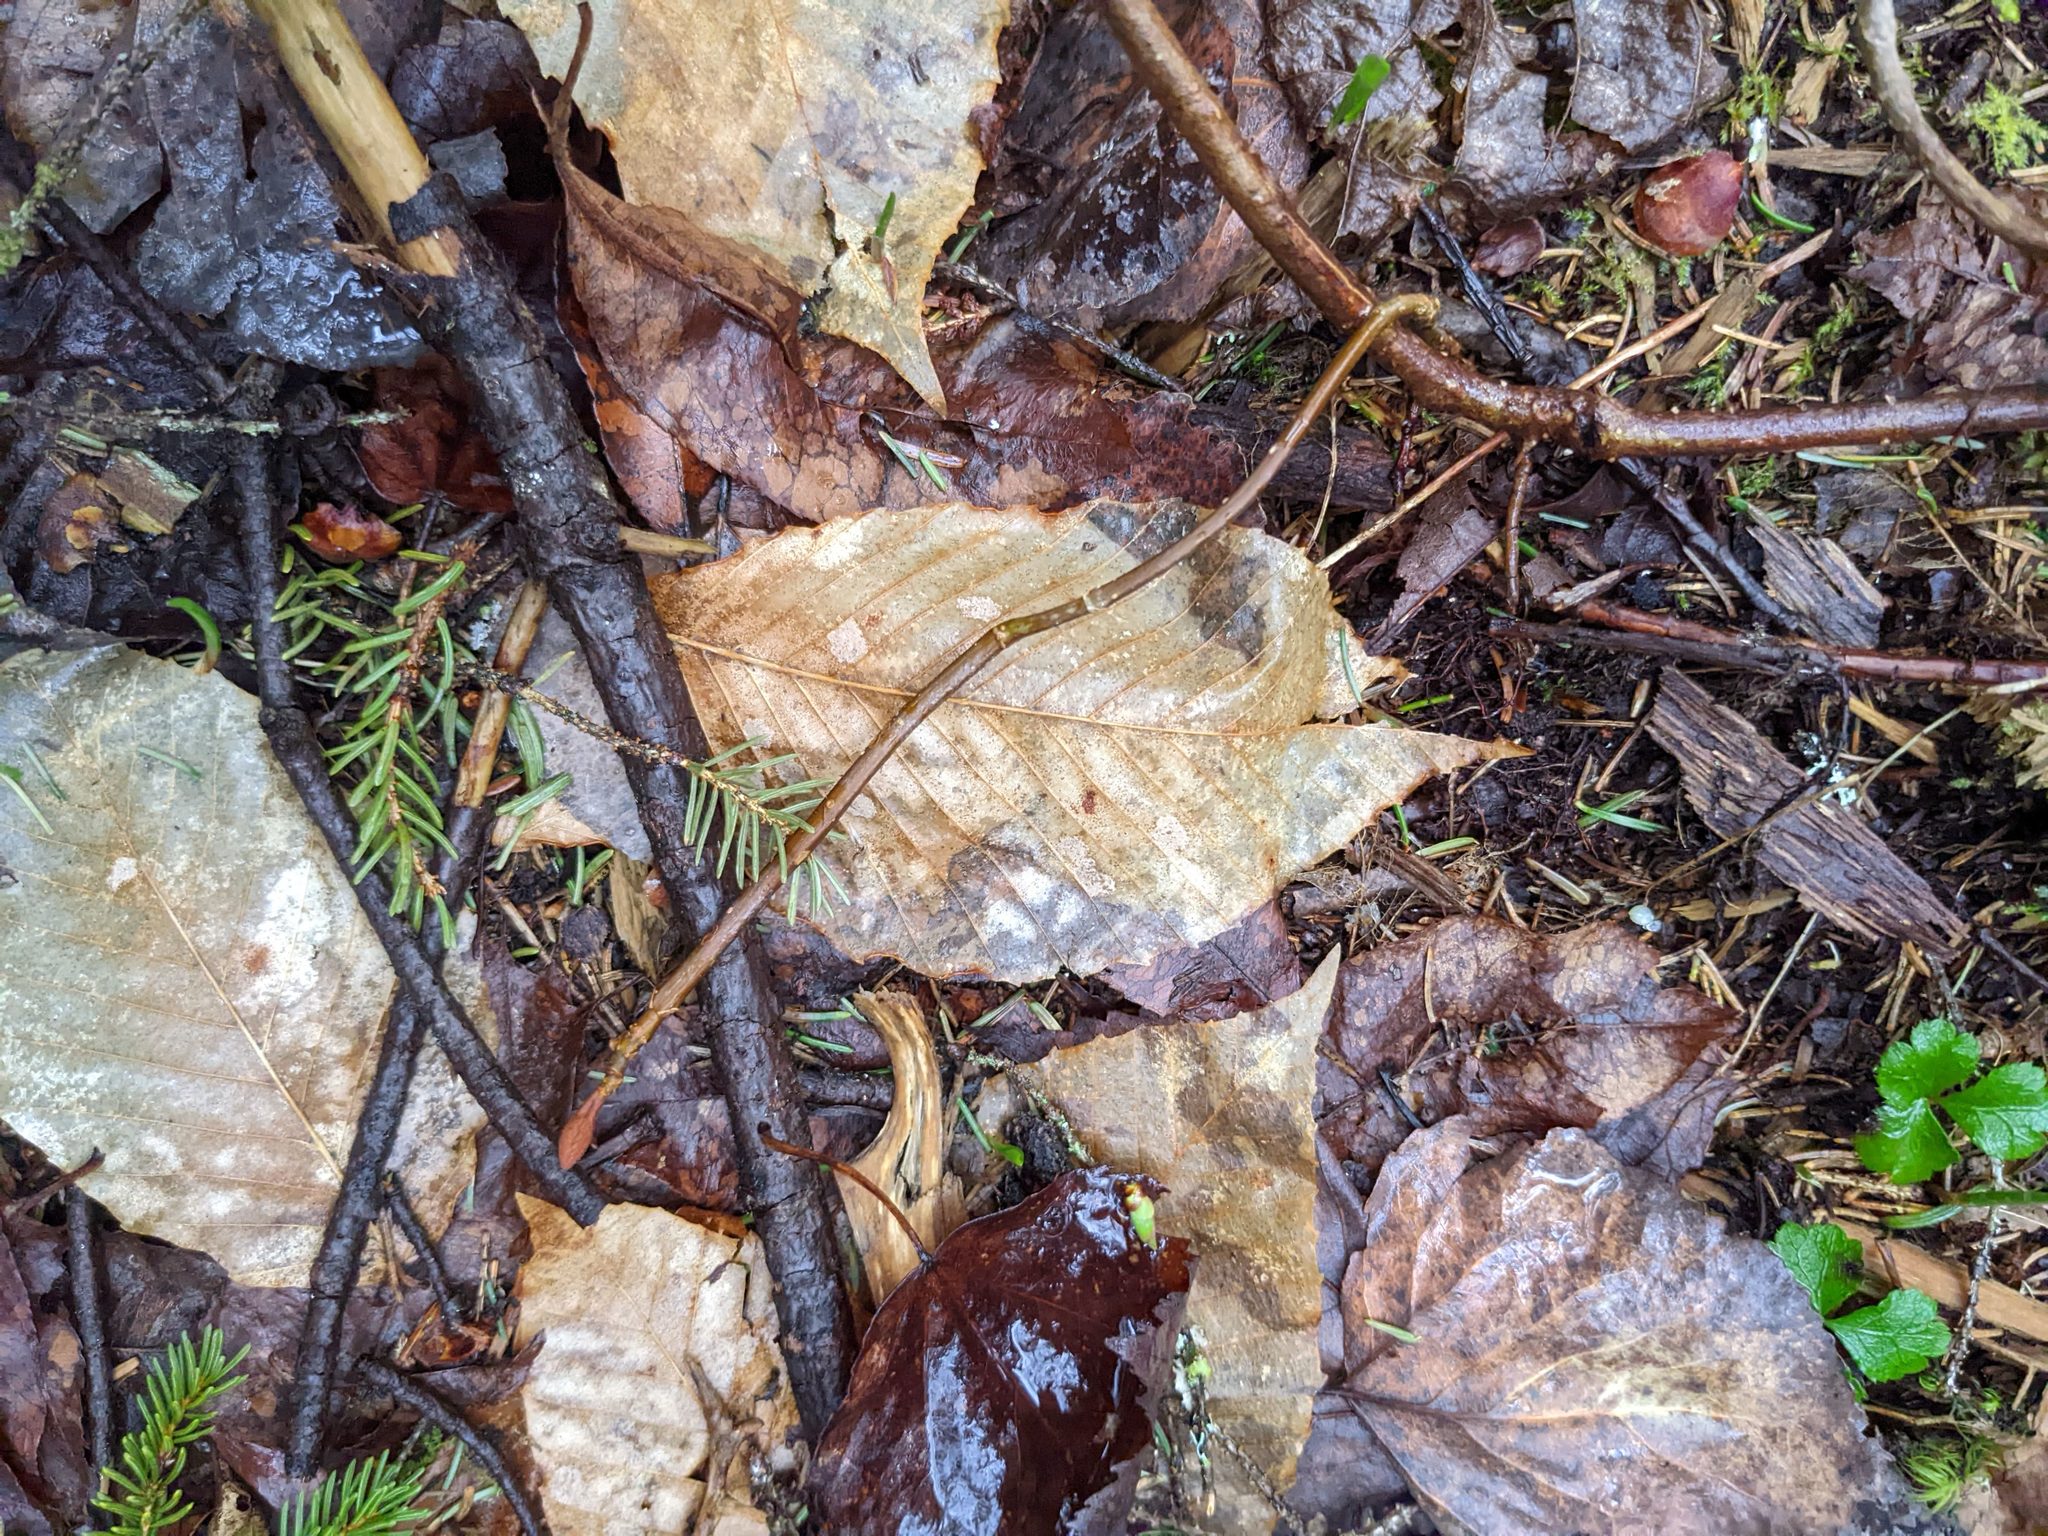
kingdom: Plantae
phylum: Tracheophyta
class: Magnoliopsida
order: Fagales
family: Fagaceae
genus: Fagus
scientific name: Fagus grandifolia
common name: American beech
